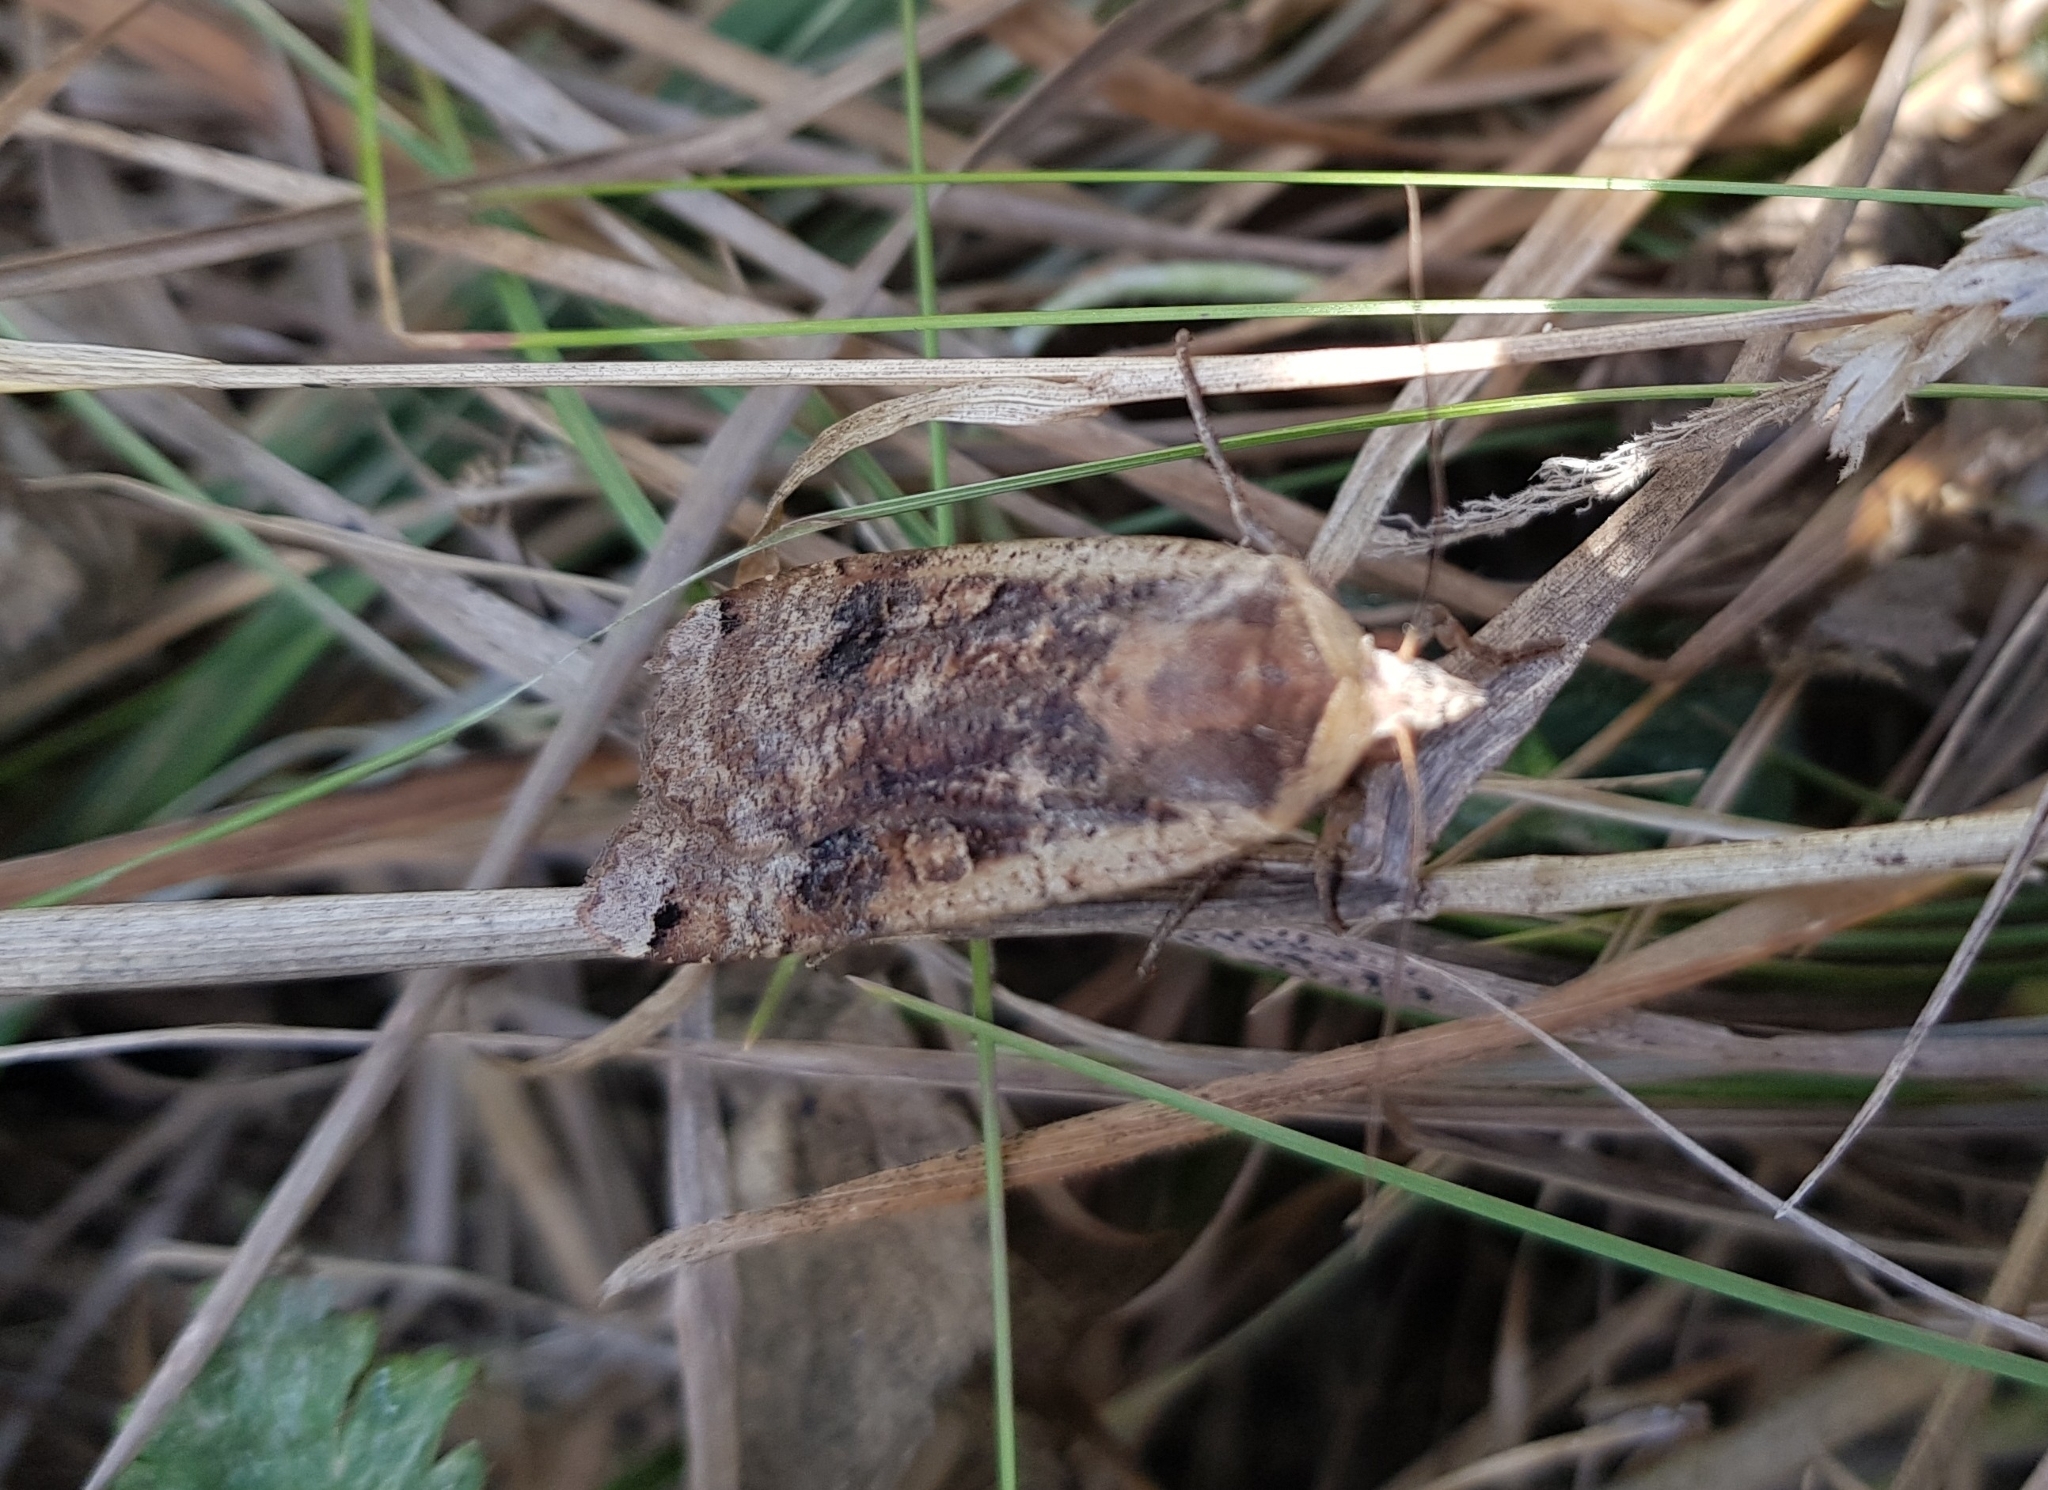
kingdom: Animalia
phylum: Arthropoda
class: Insecta
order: Lepidoptera
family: Noctuidae
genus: Noctua
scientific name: Noctua pronuba
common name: Large yellow underwing
